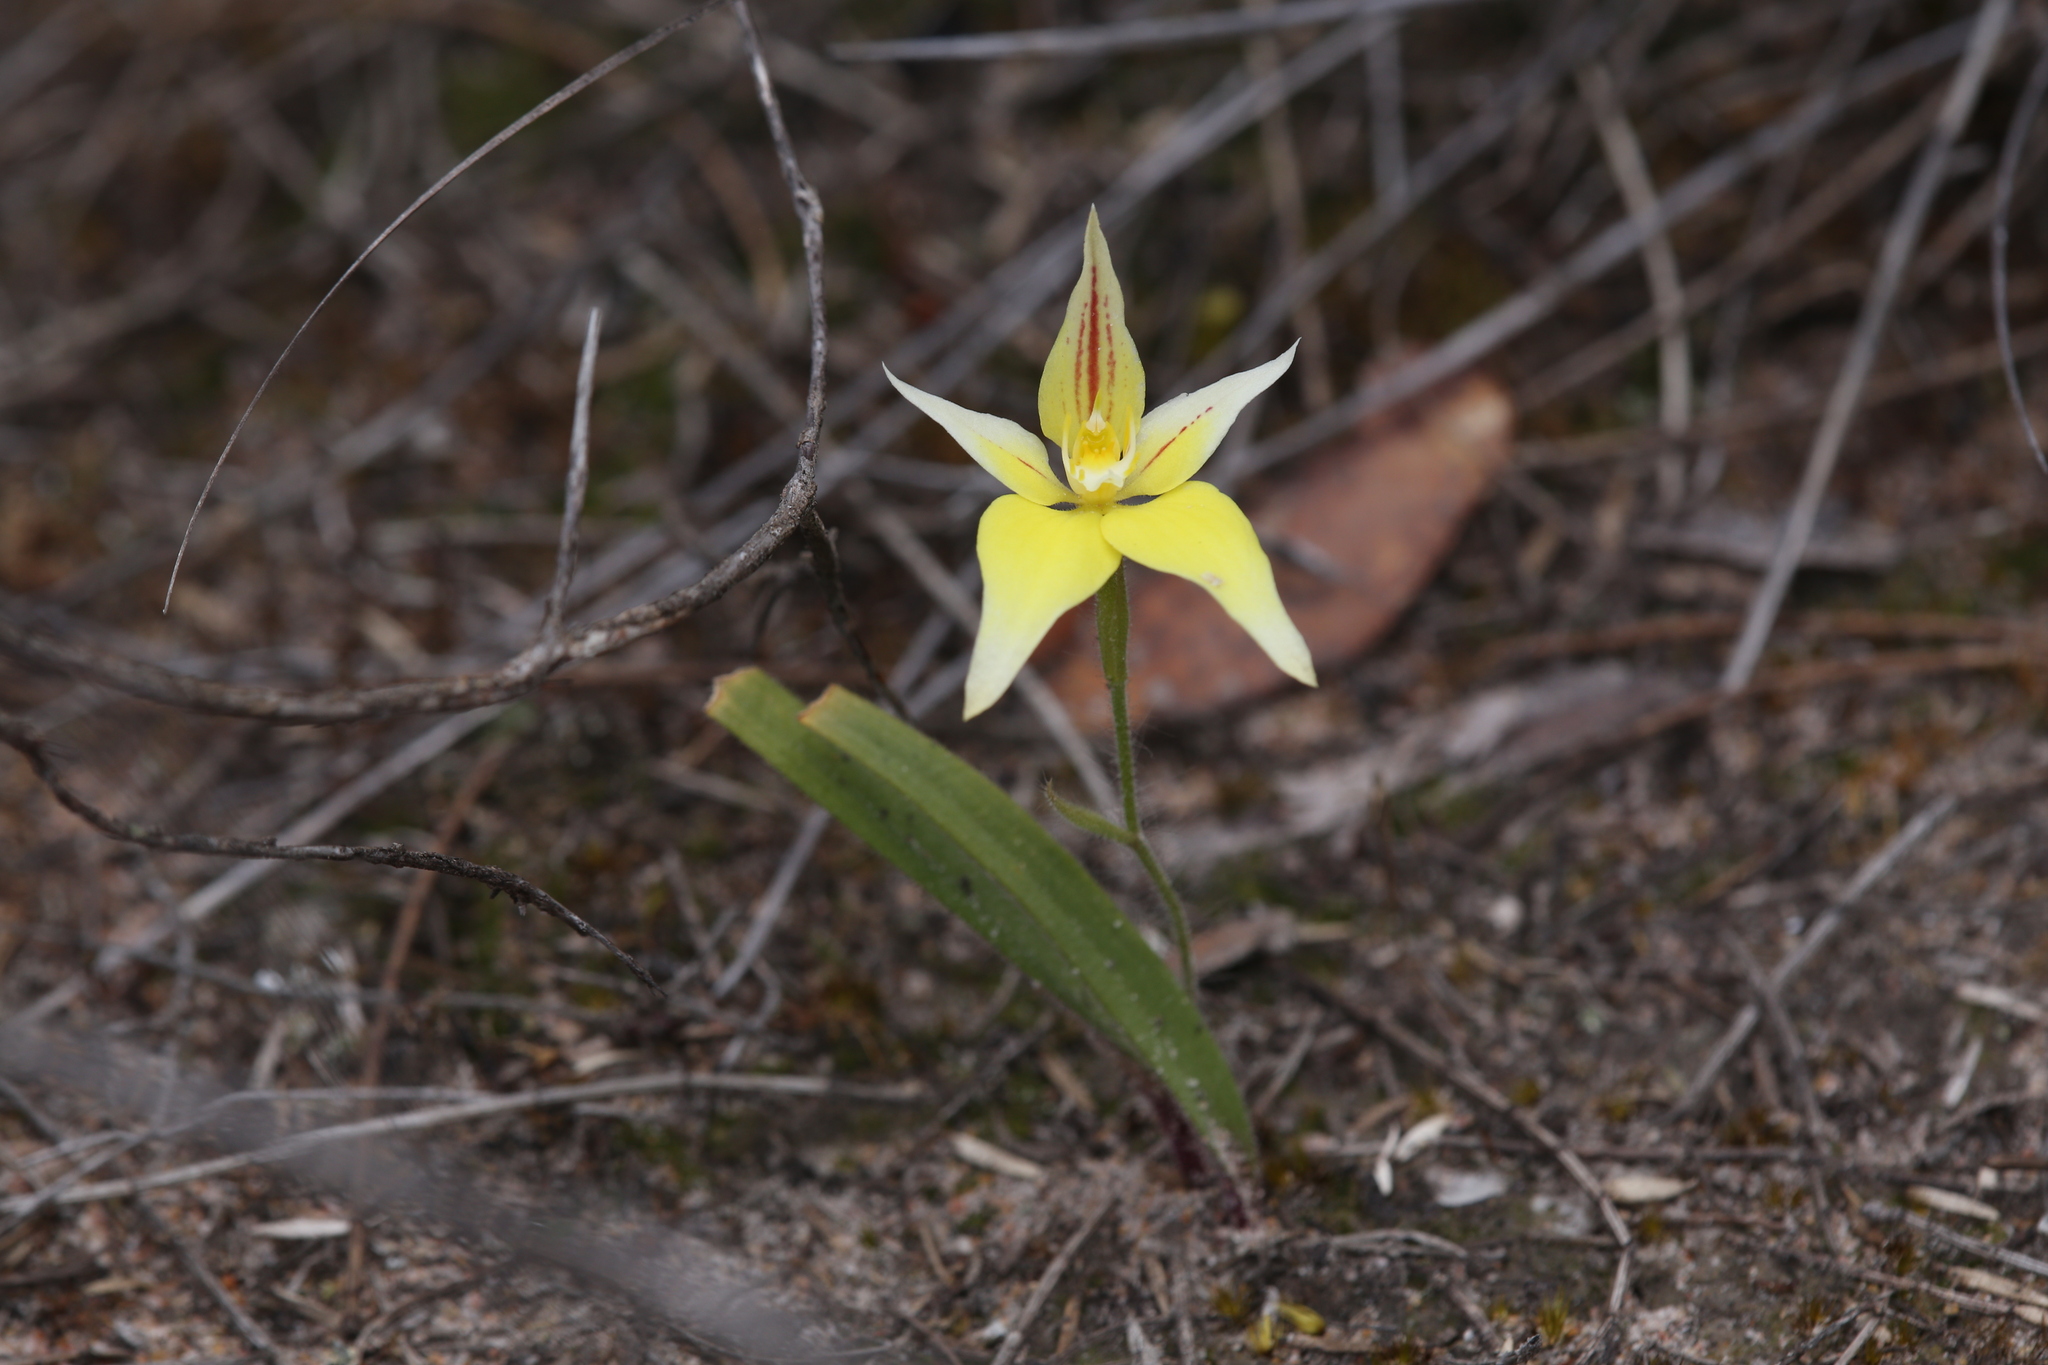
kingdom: Plantae
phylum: Tracheophyta
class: Liliopsida
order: Asparagales
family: Orchidaceae
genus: Caladenia
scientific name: Caladenia flava
